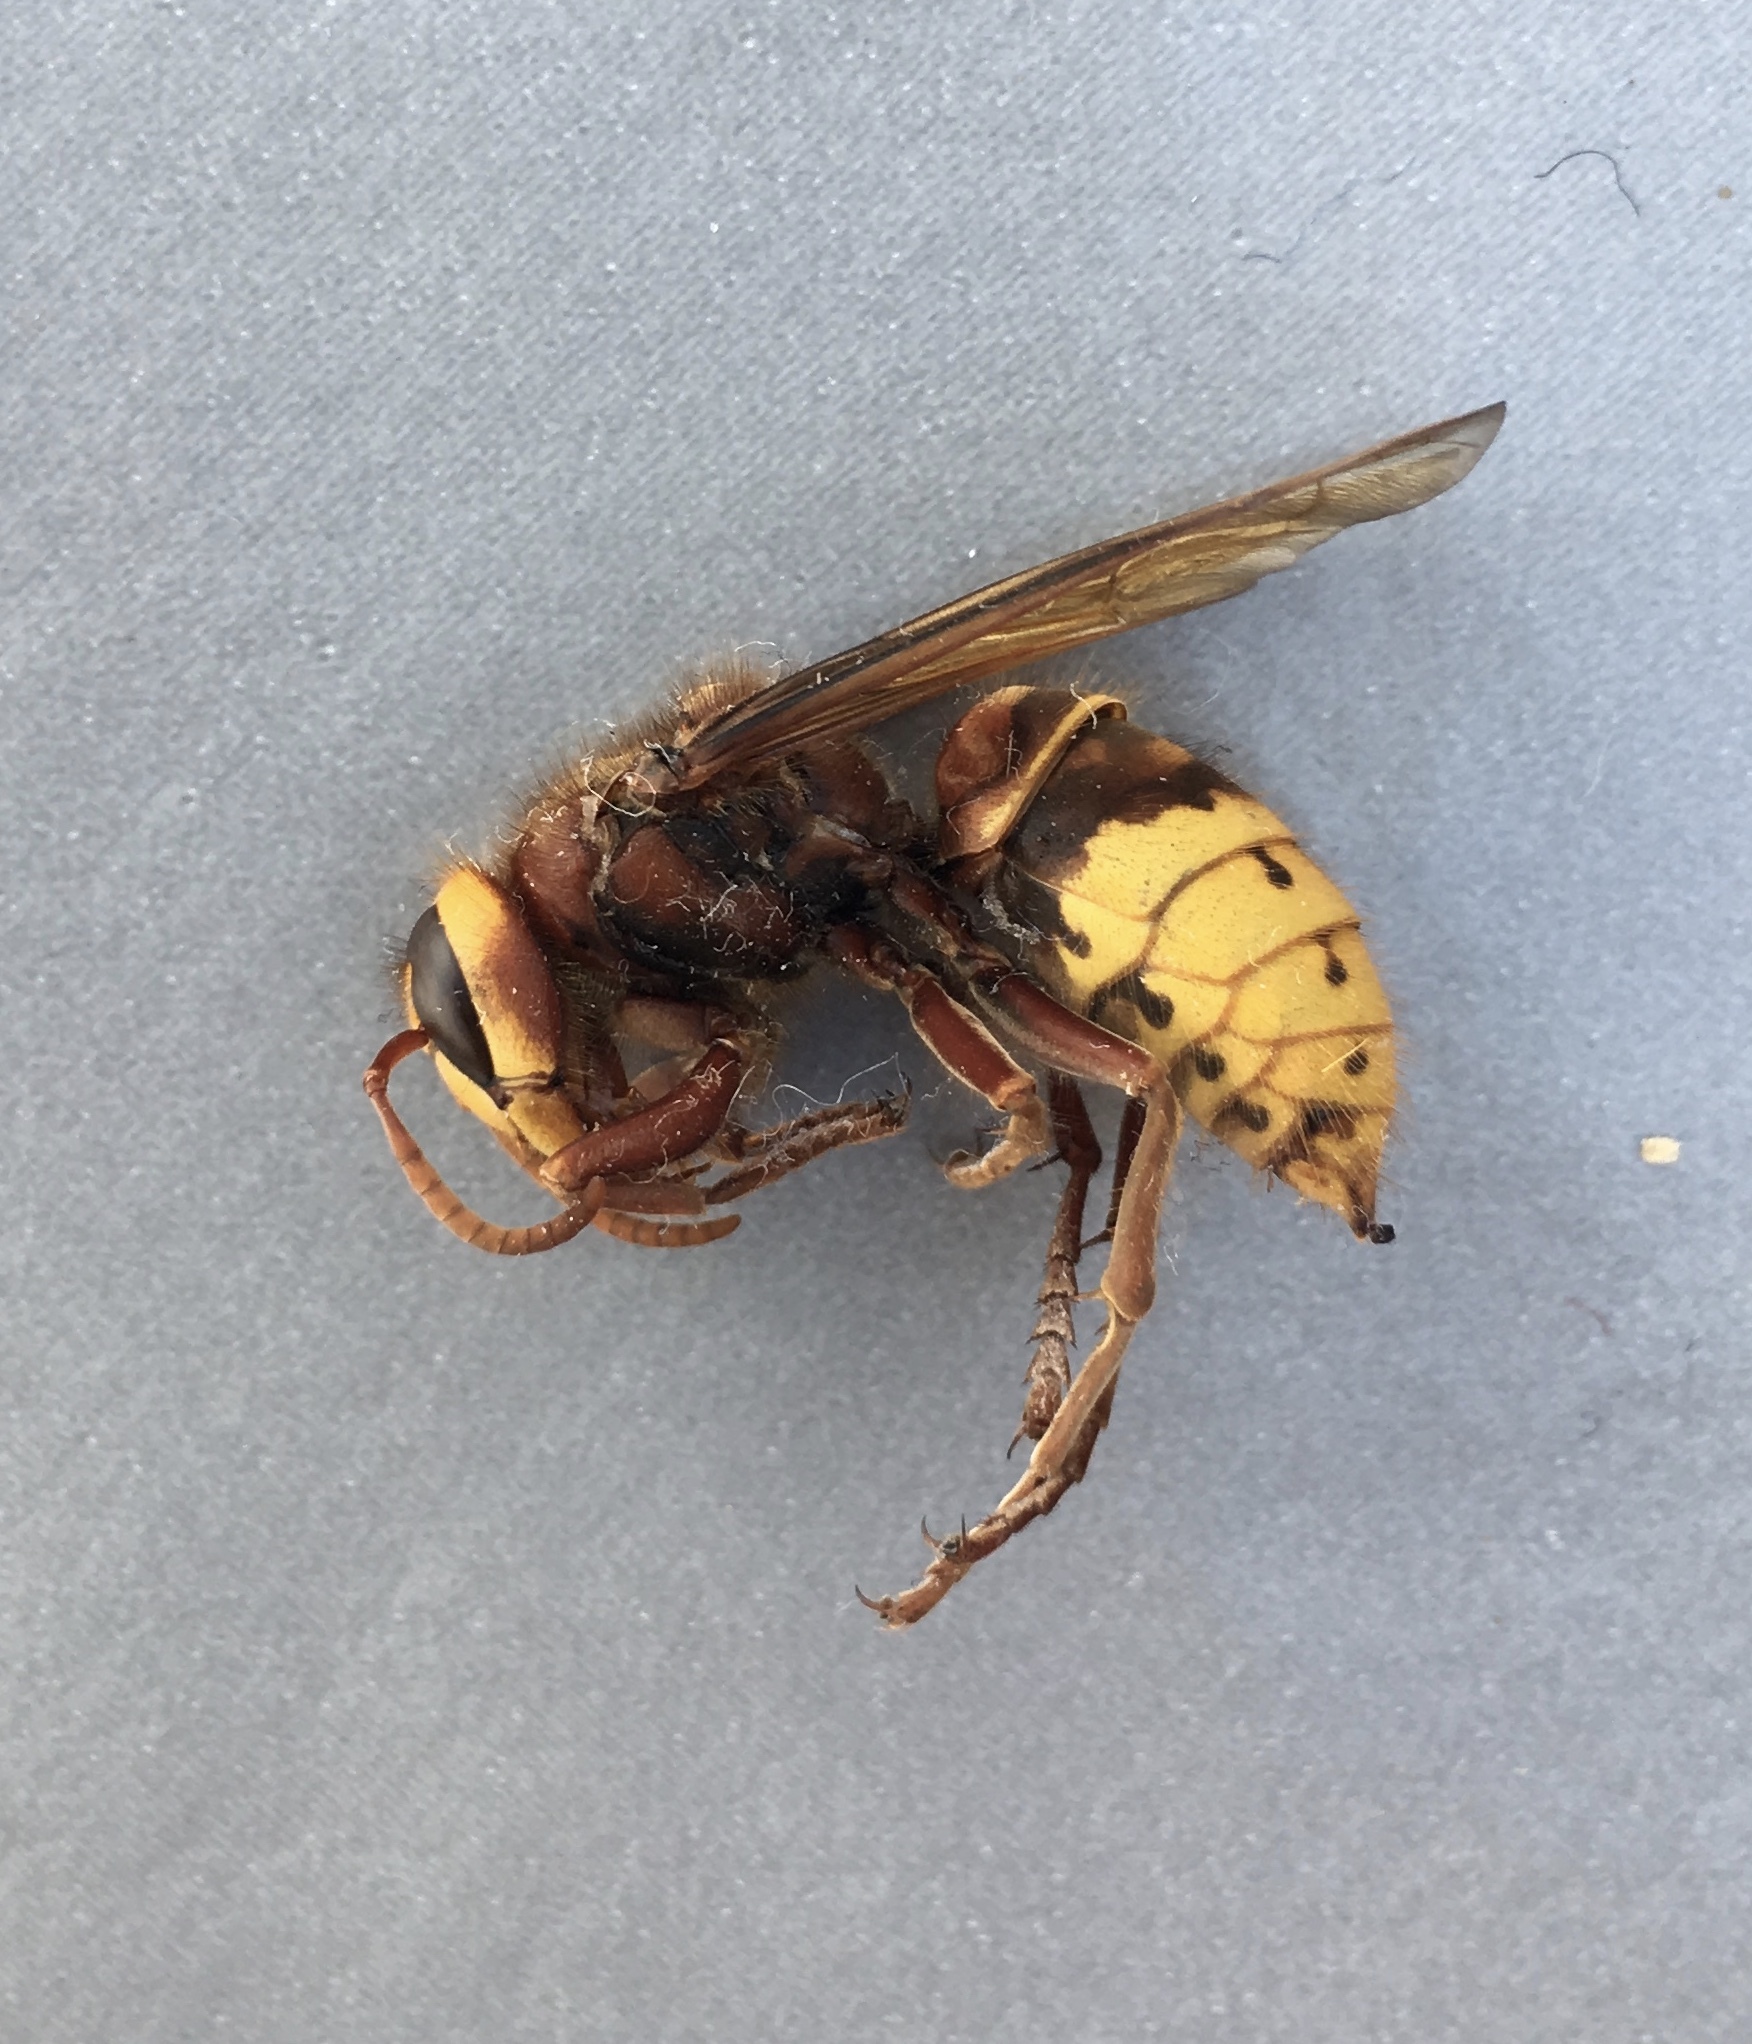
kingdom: Animalia
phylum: Arthropoda
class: Insecta
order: Hymenoptera
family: Vespidae
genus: Vespa
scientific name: Vespa crabro
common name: Hornet
